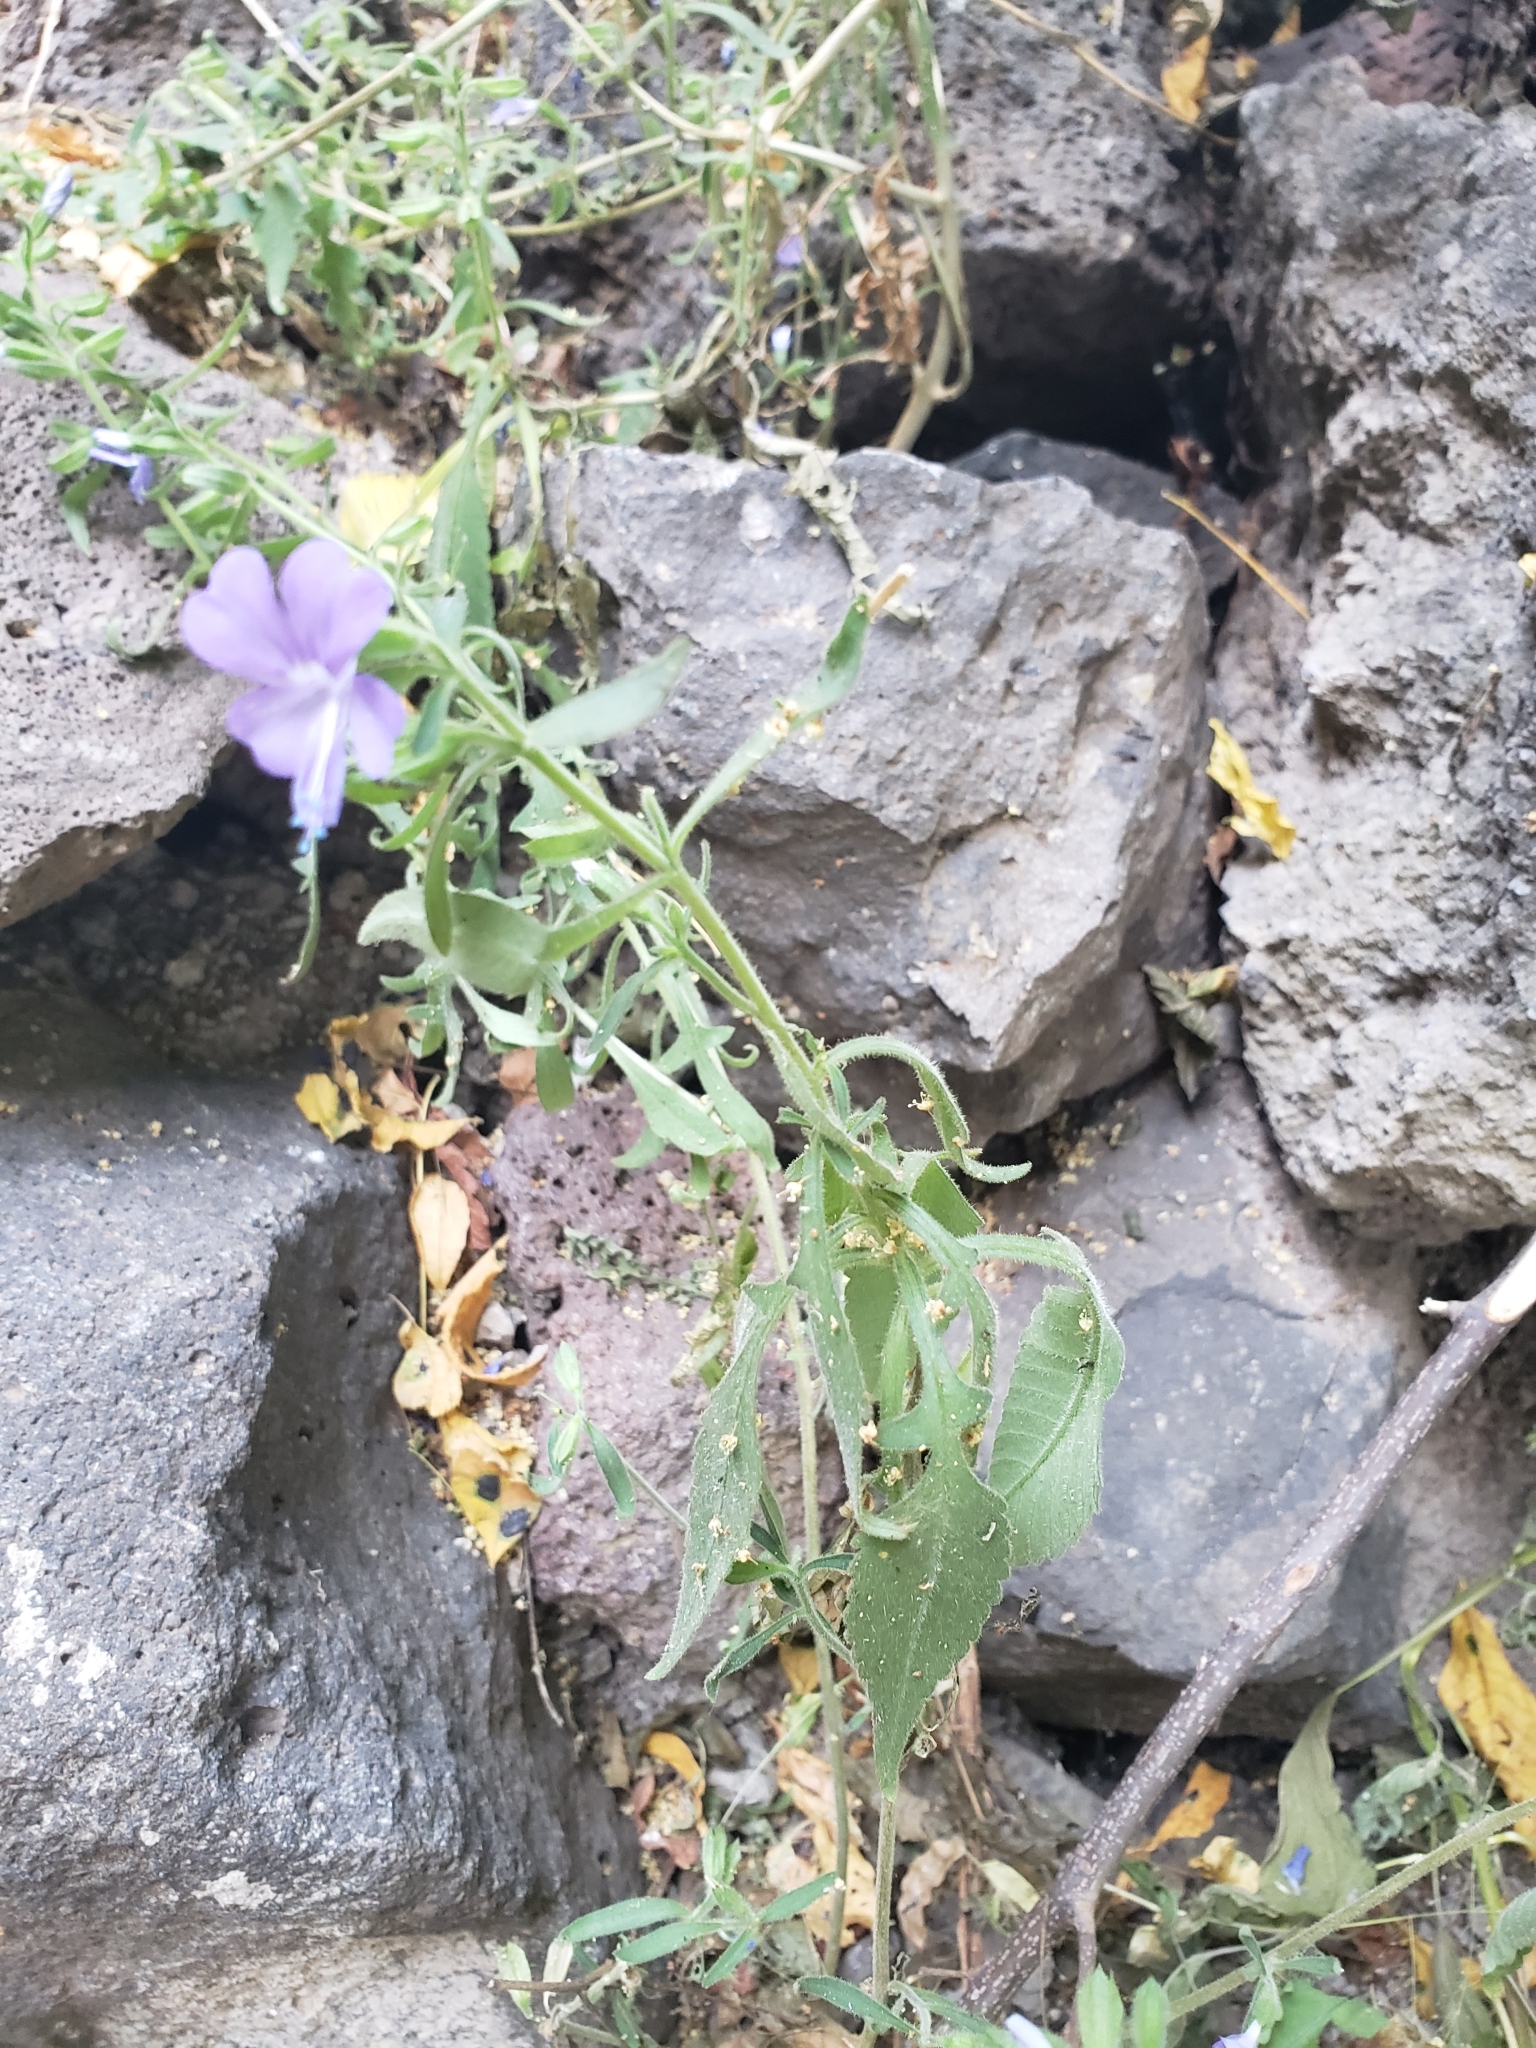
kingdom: Plantae
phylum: Tracheophyta
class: Magnoliopsida
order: Ericales
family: Polemoniaceae
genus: Bonplandia
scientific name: Bonplandia geminiflora
